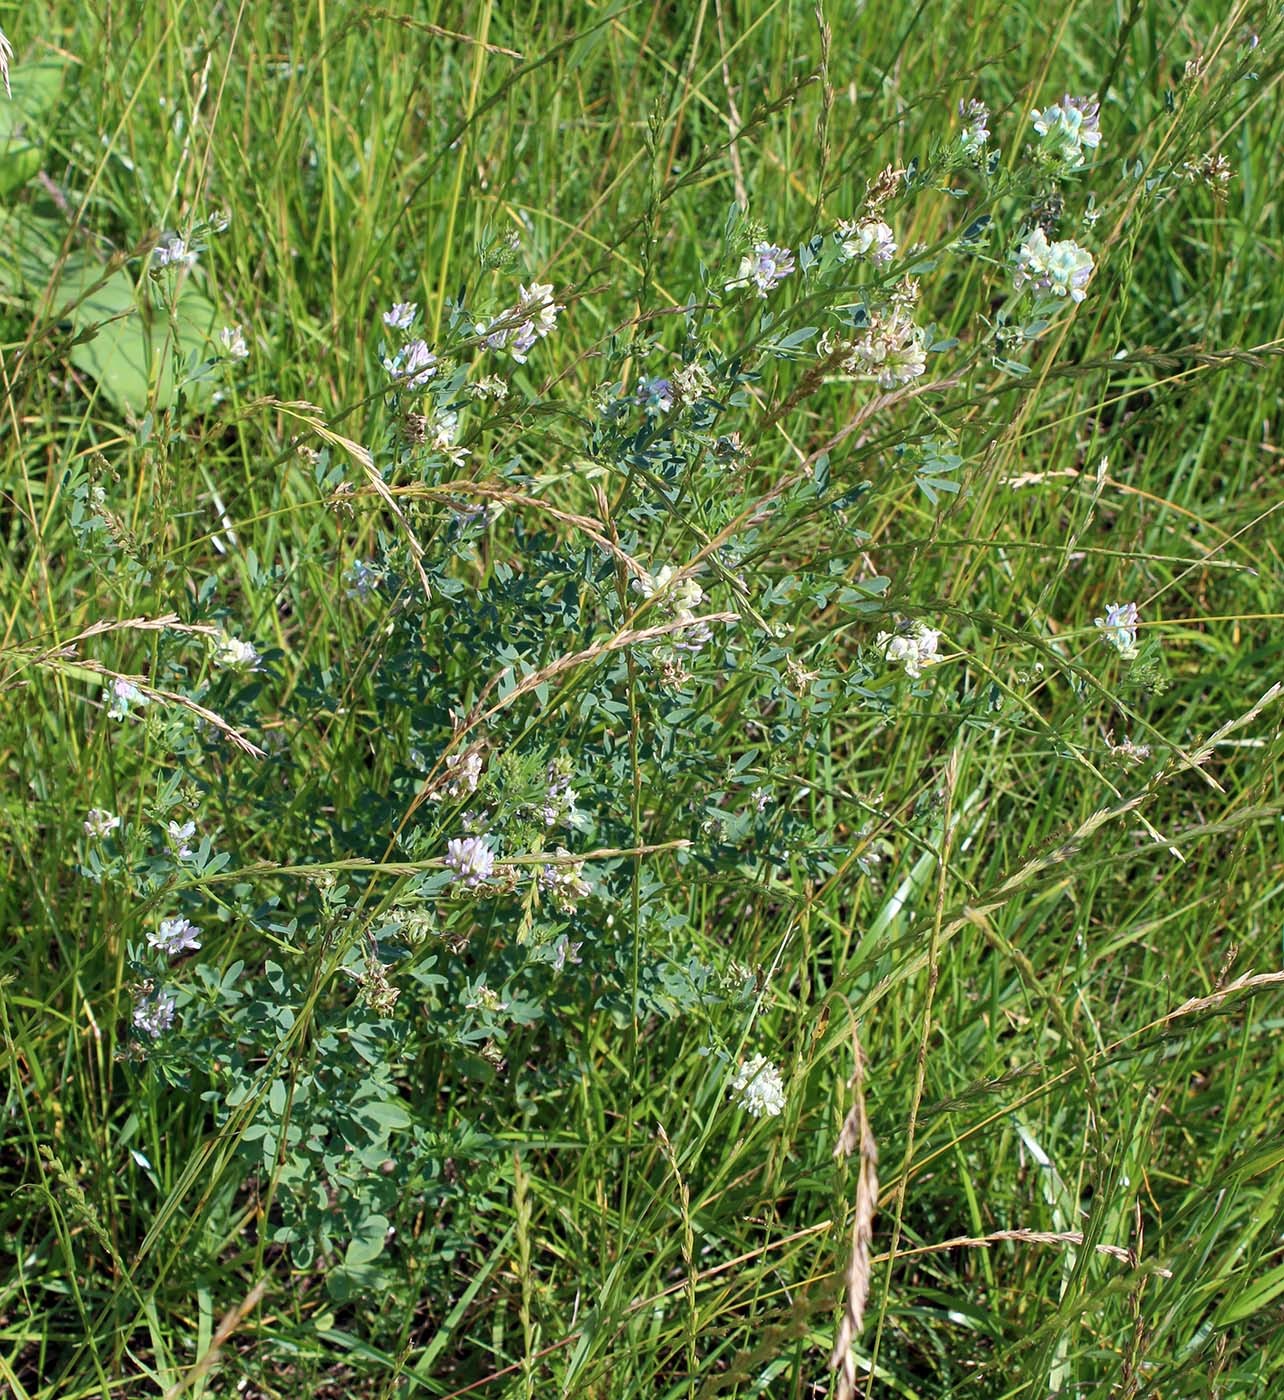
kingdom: Plantae
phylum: Tracheophyta
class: Magnoliopsida
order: Fabales
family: Fabaceae
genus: Medicago
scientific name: Medicago varia
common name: Sand lucerne
